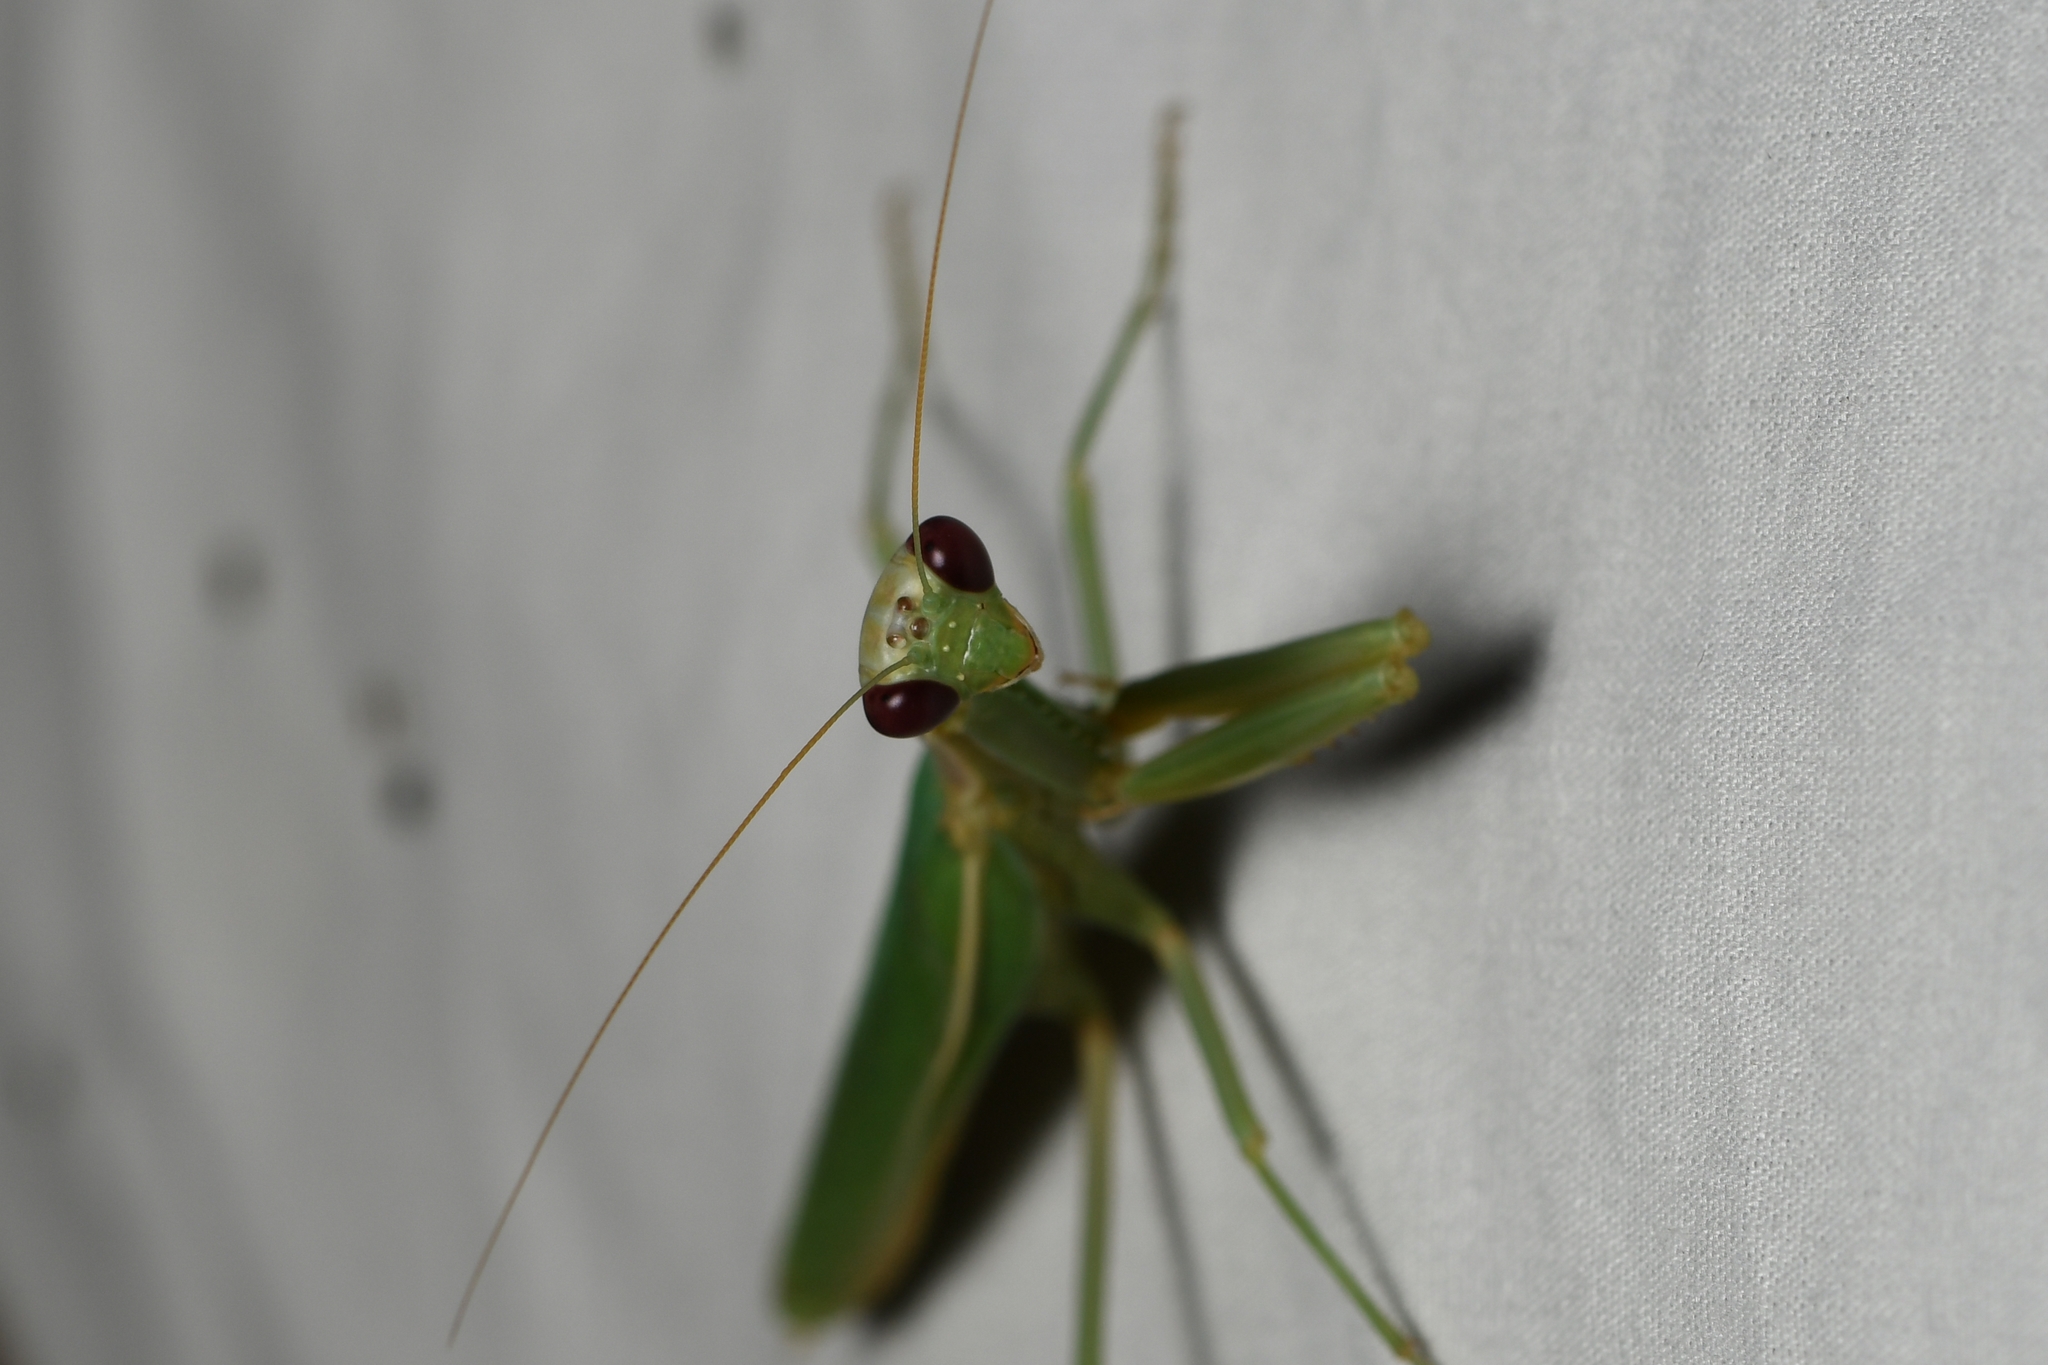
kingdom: Animalia
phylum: Arthropoda
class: Insecta
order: Mantodea
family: Eremiaphilidae
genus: Iris
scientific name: Iris oratoria
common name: Mediterranean mantis
